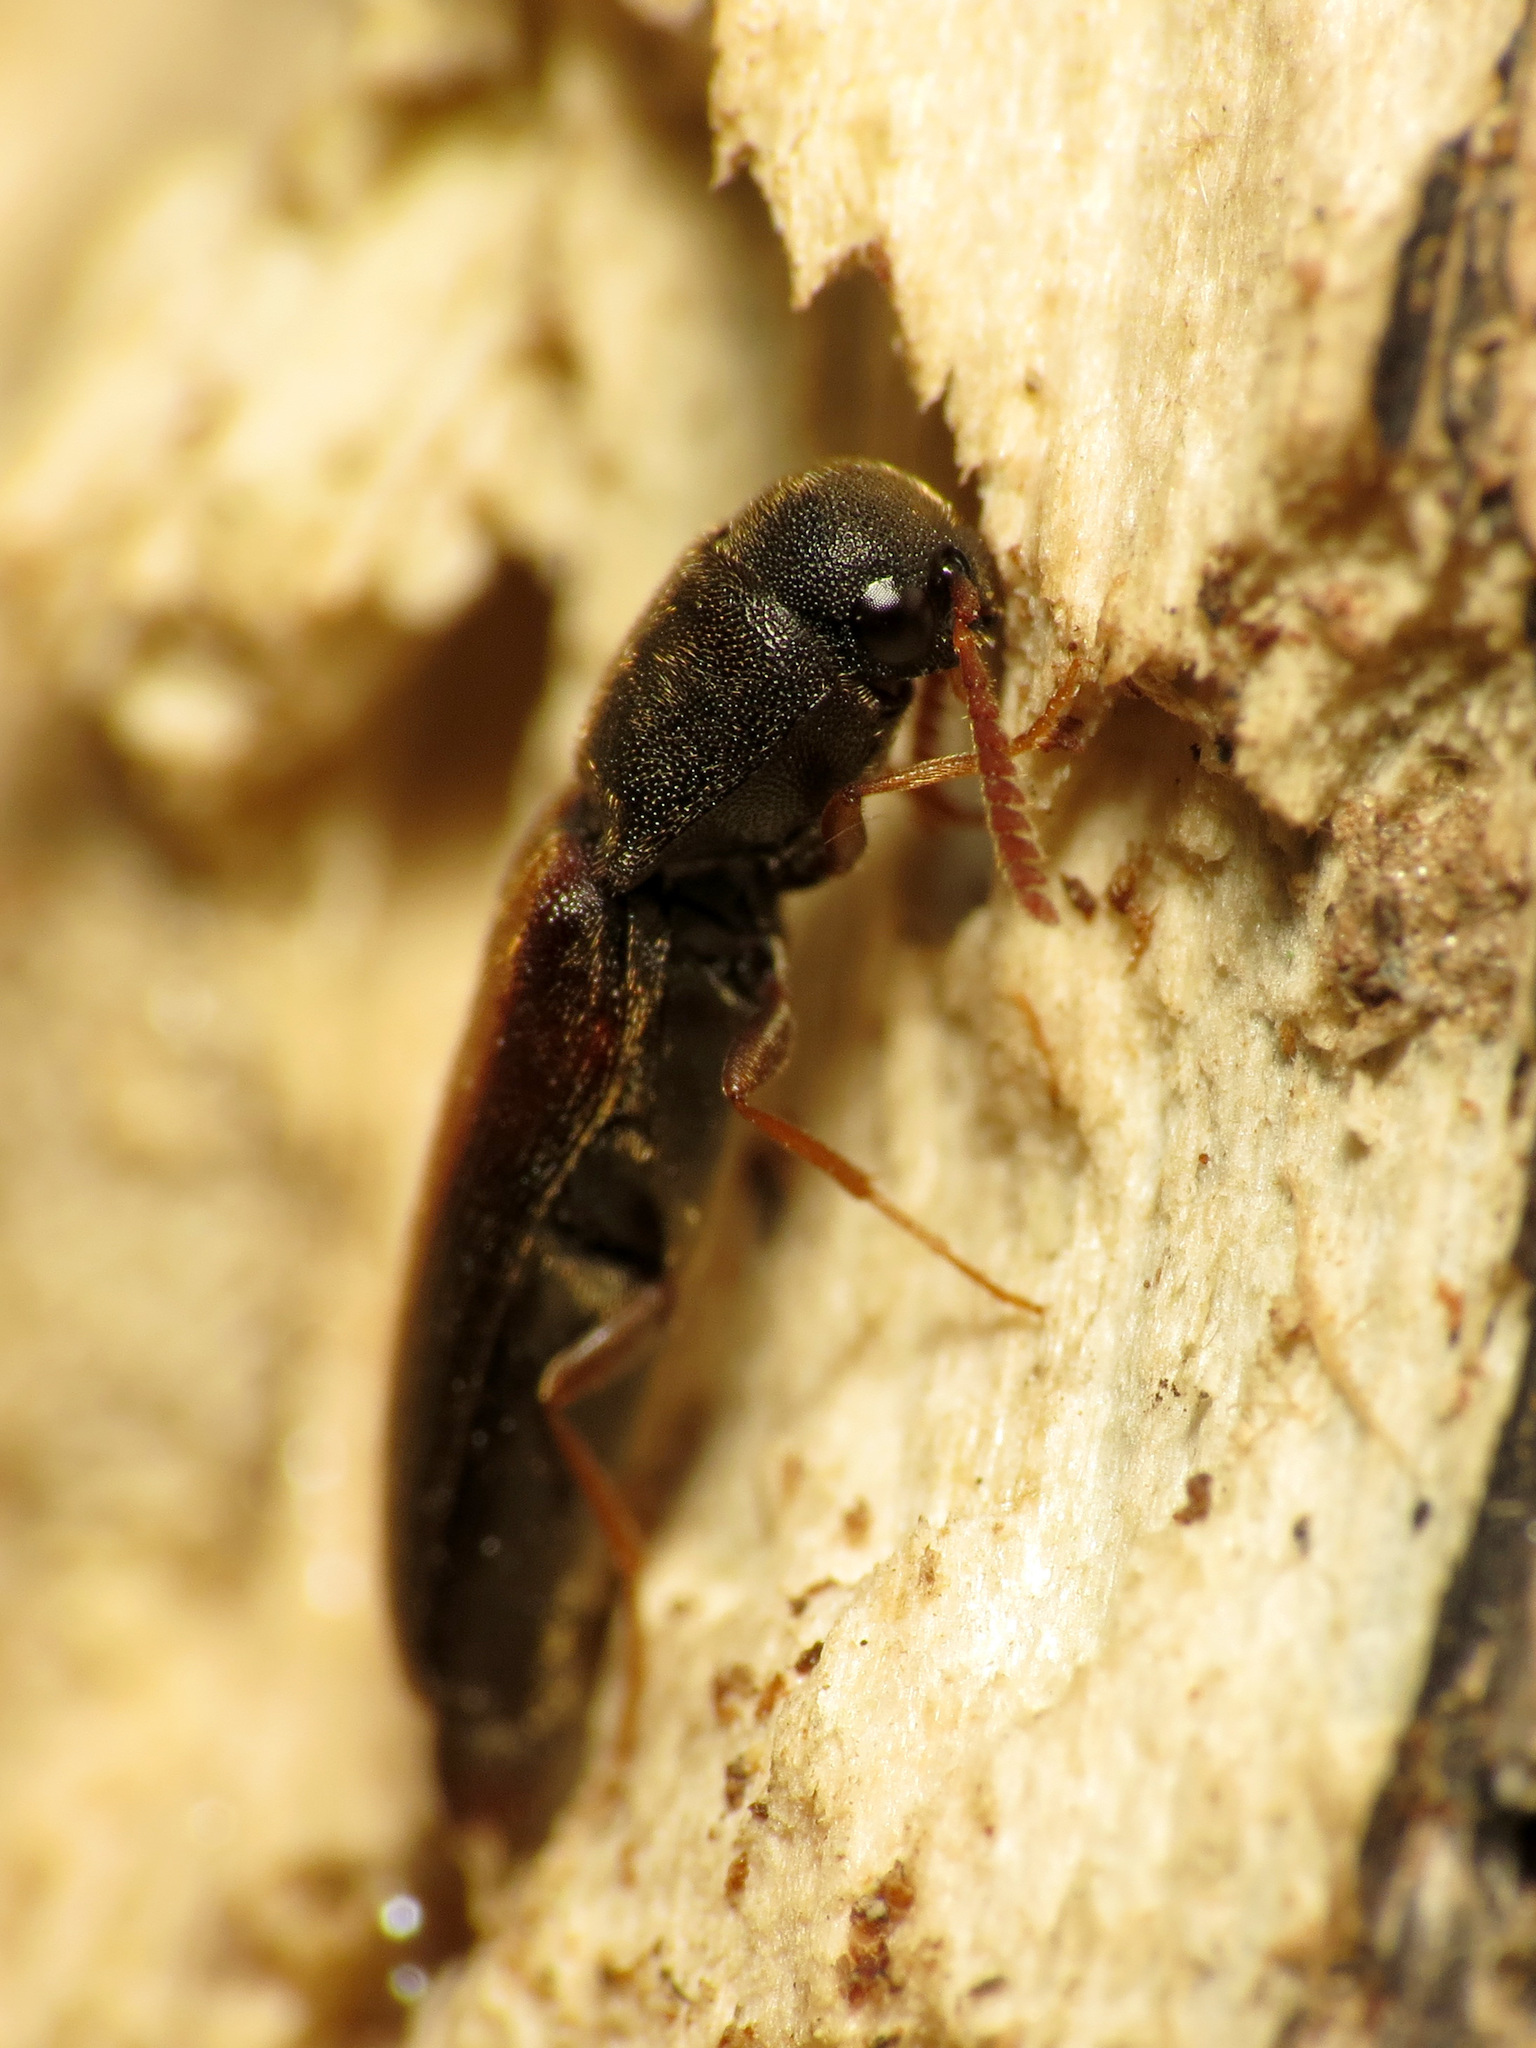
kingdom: Animalia
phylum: Arthropoda
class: Insecta
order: Coleoptera
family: Eucnemidae
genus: Isorhipis
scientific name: Isorhipis obliqua
